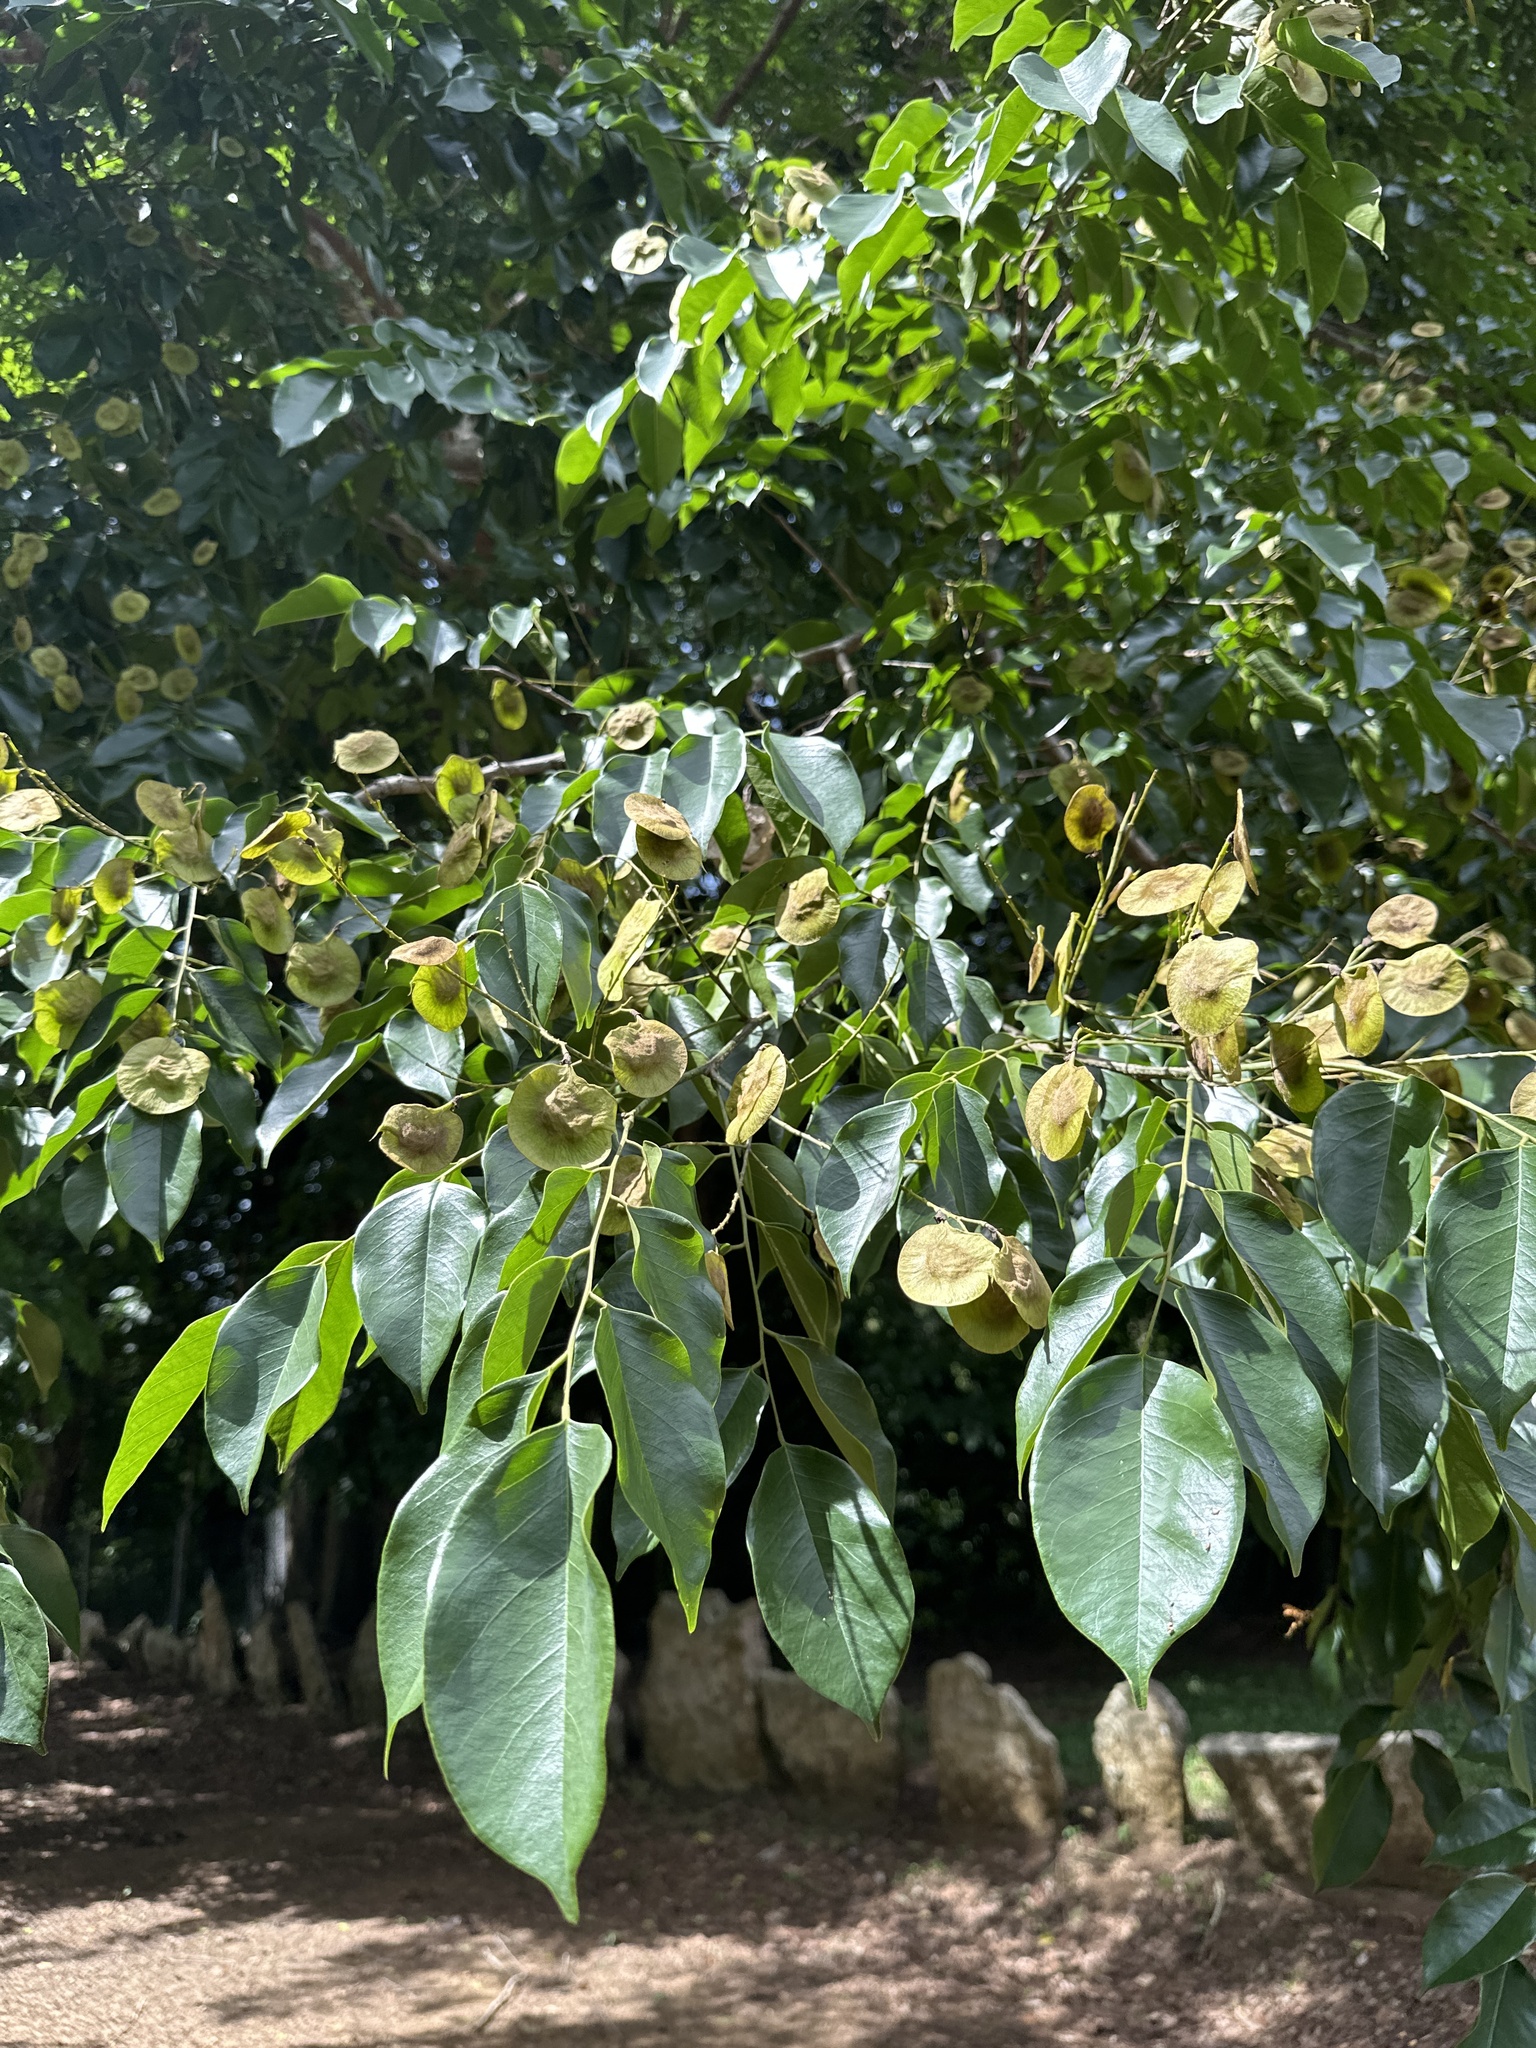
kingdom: Plantae
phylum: Tracheophyta
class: Magnoliopsida
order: Fabales
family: Fabaceae
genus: Pterocarpus
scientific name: Pterocarpus indicus
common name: Burmese rosewood
